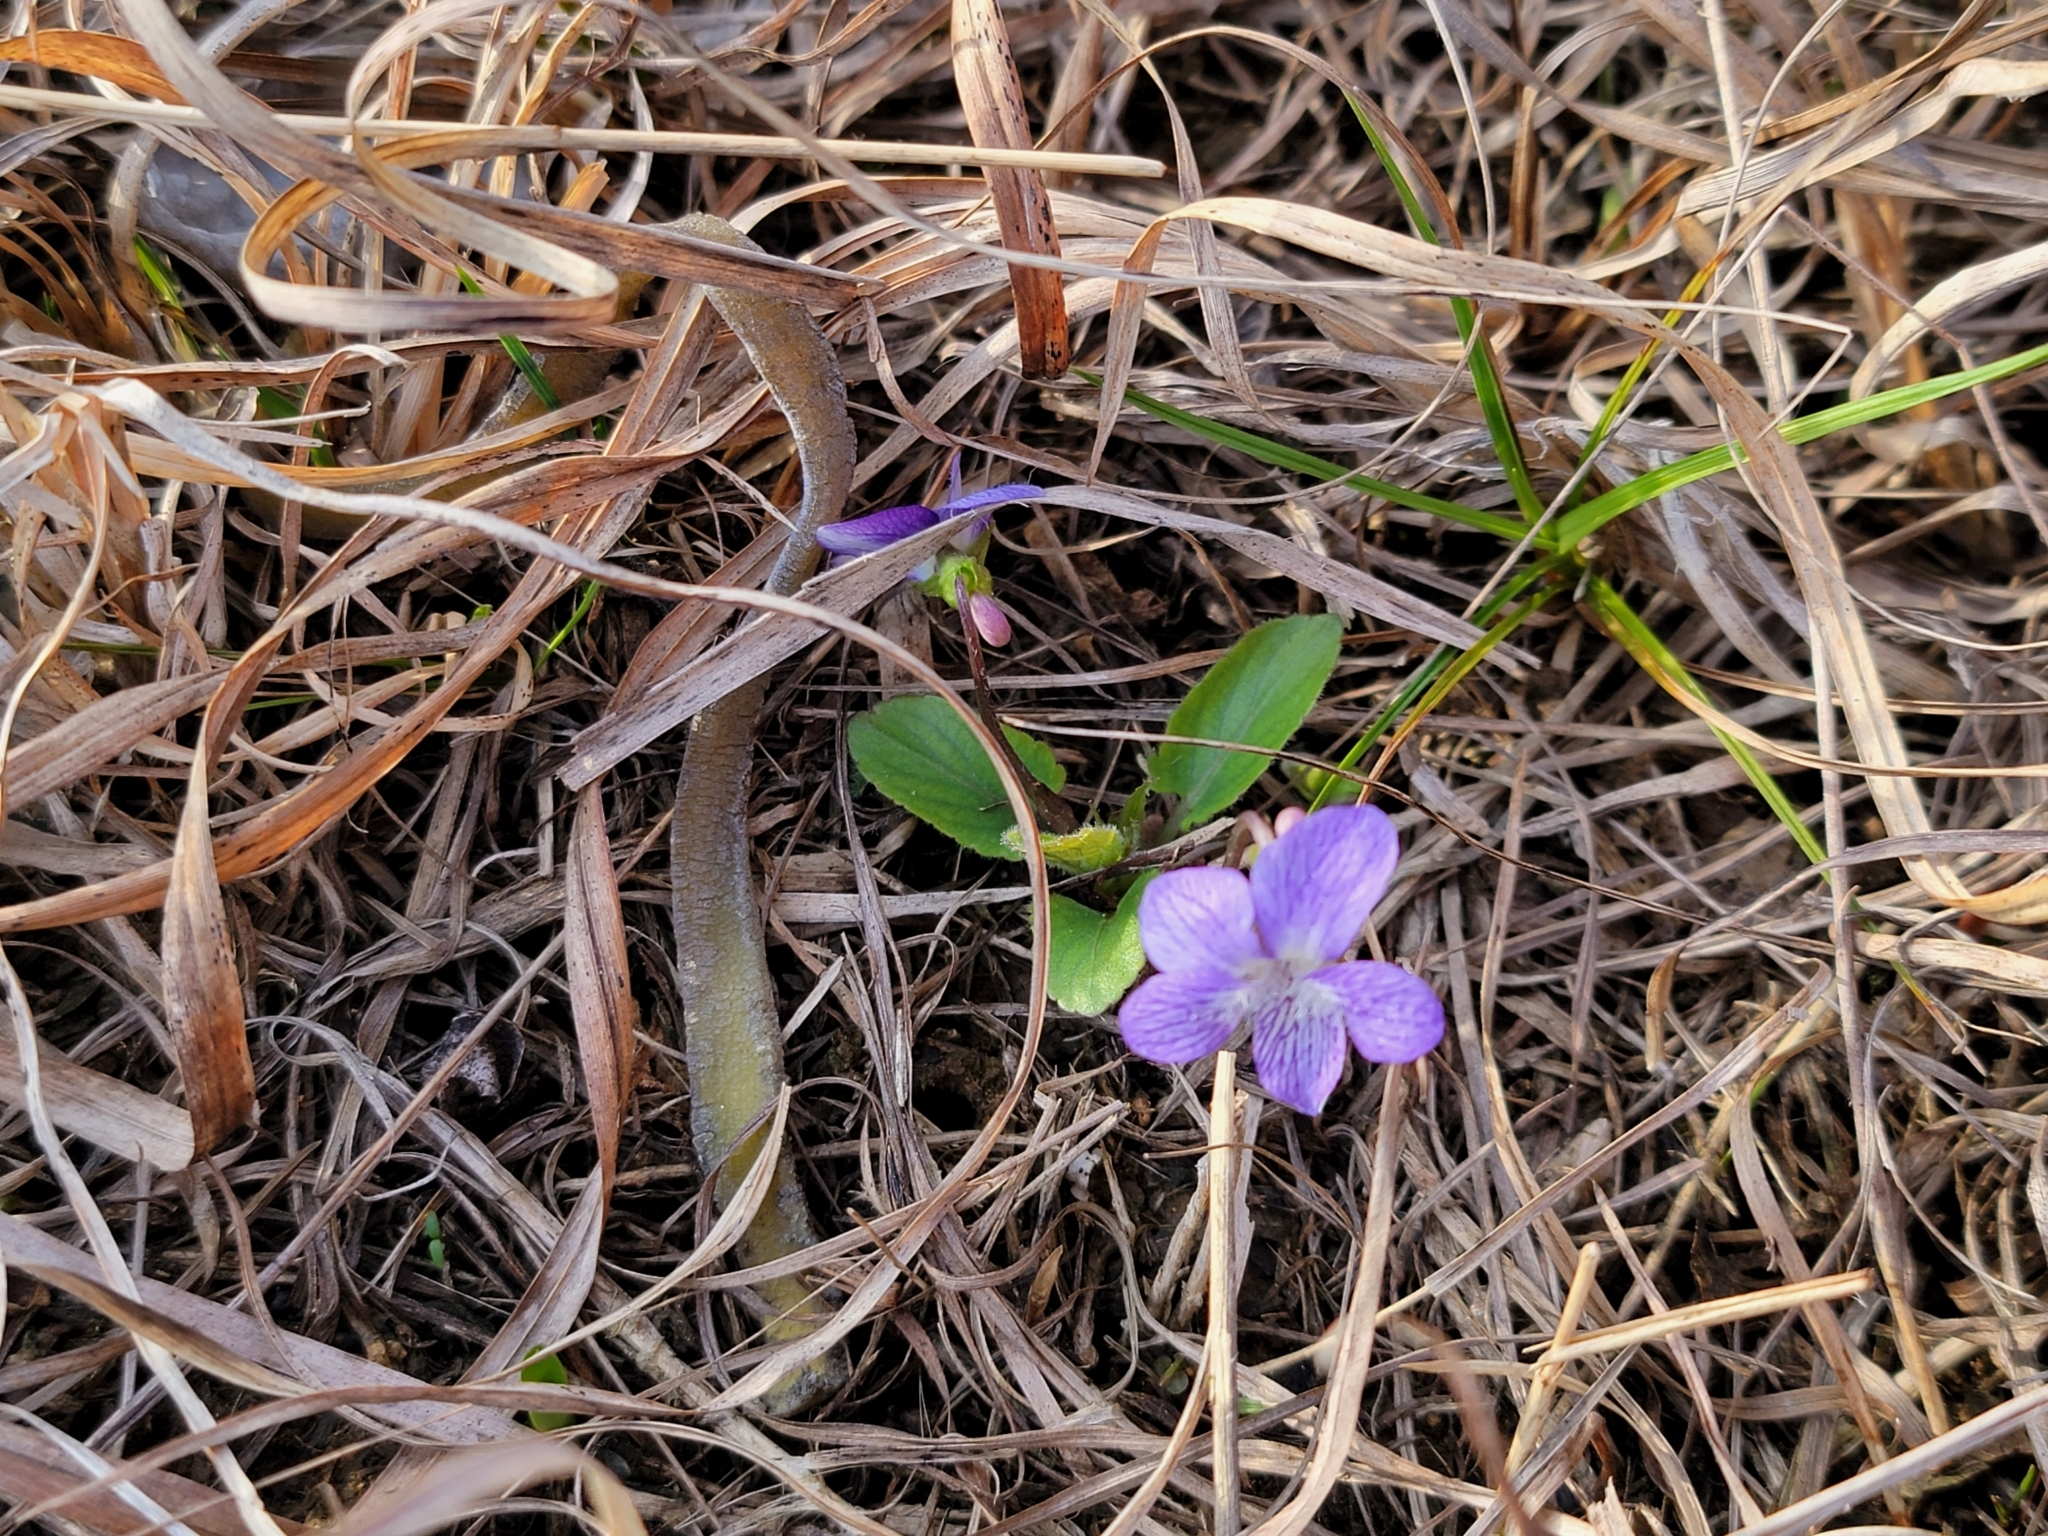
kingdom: Plantae
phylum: Tracheophyta
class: Magnoliopsida
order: Malpighiales
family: Violaceae
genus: Viola
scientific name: Viola sagittata
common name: Arrowhead violet
